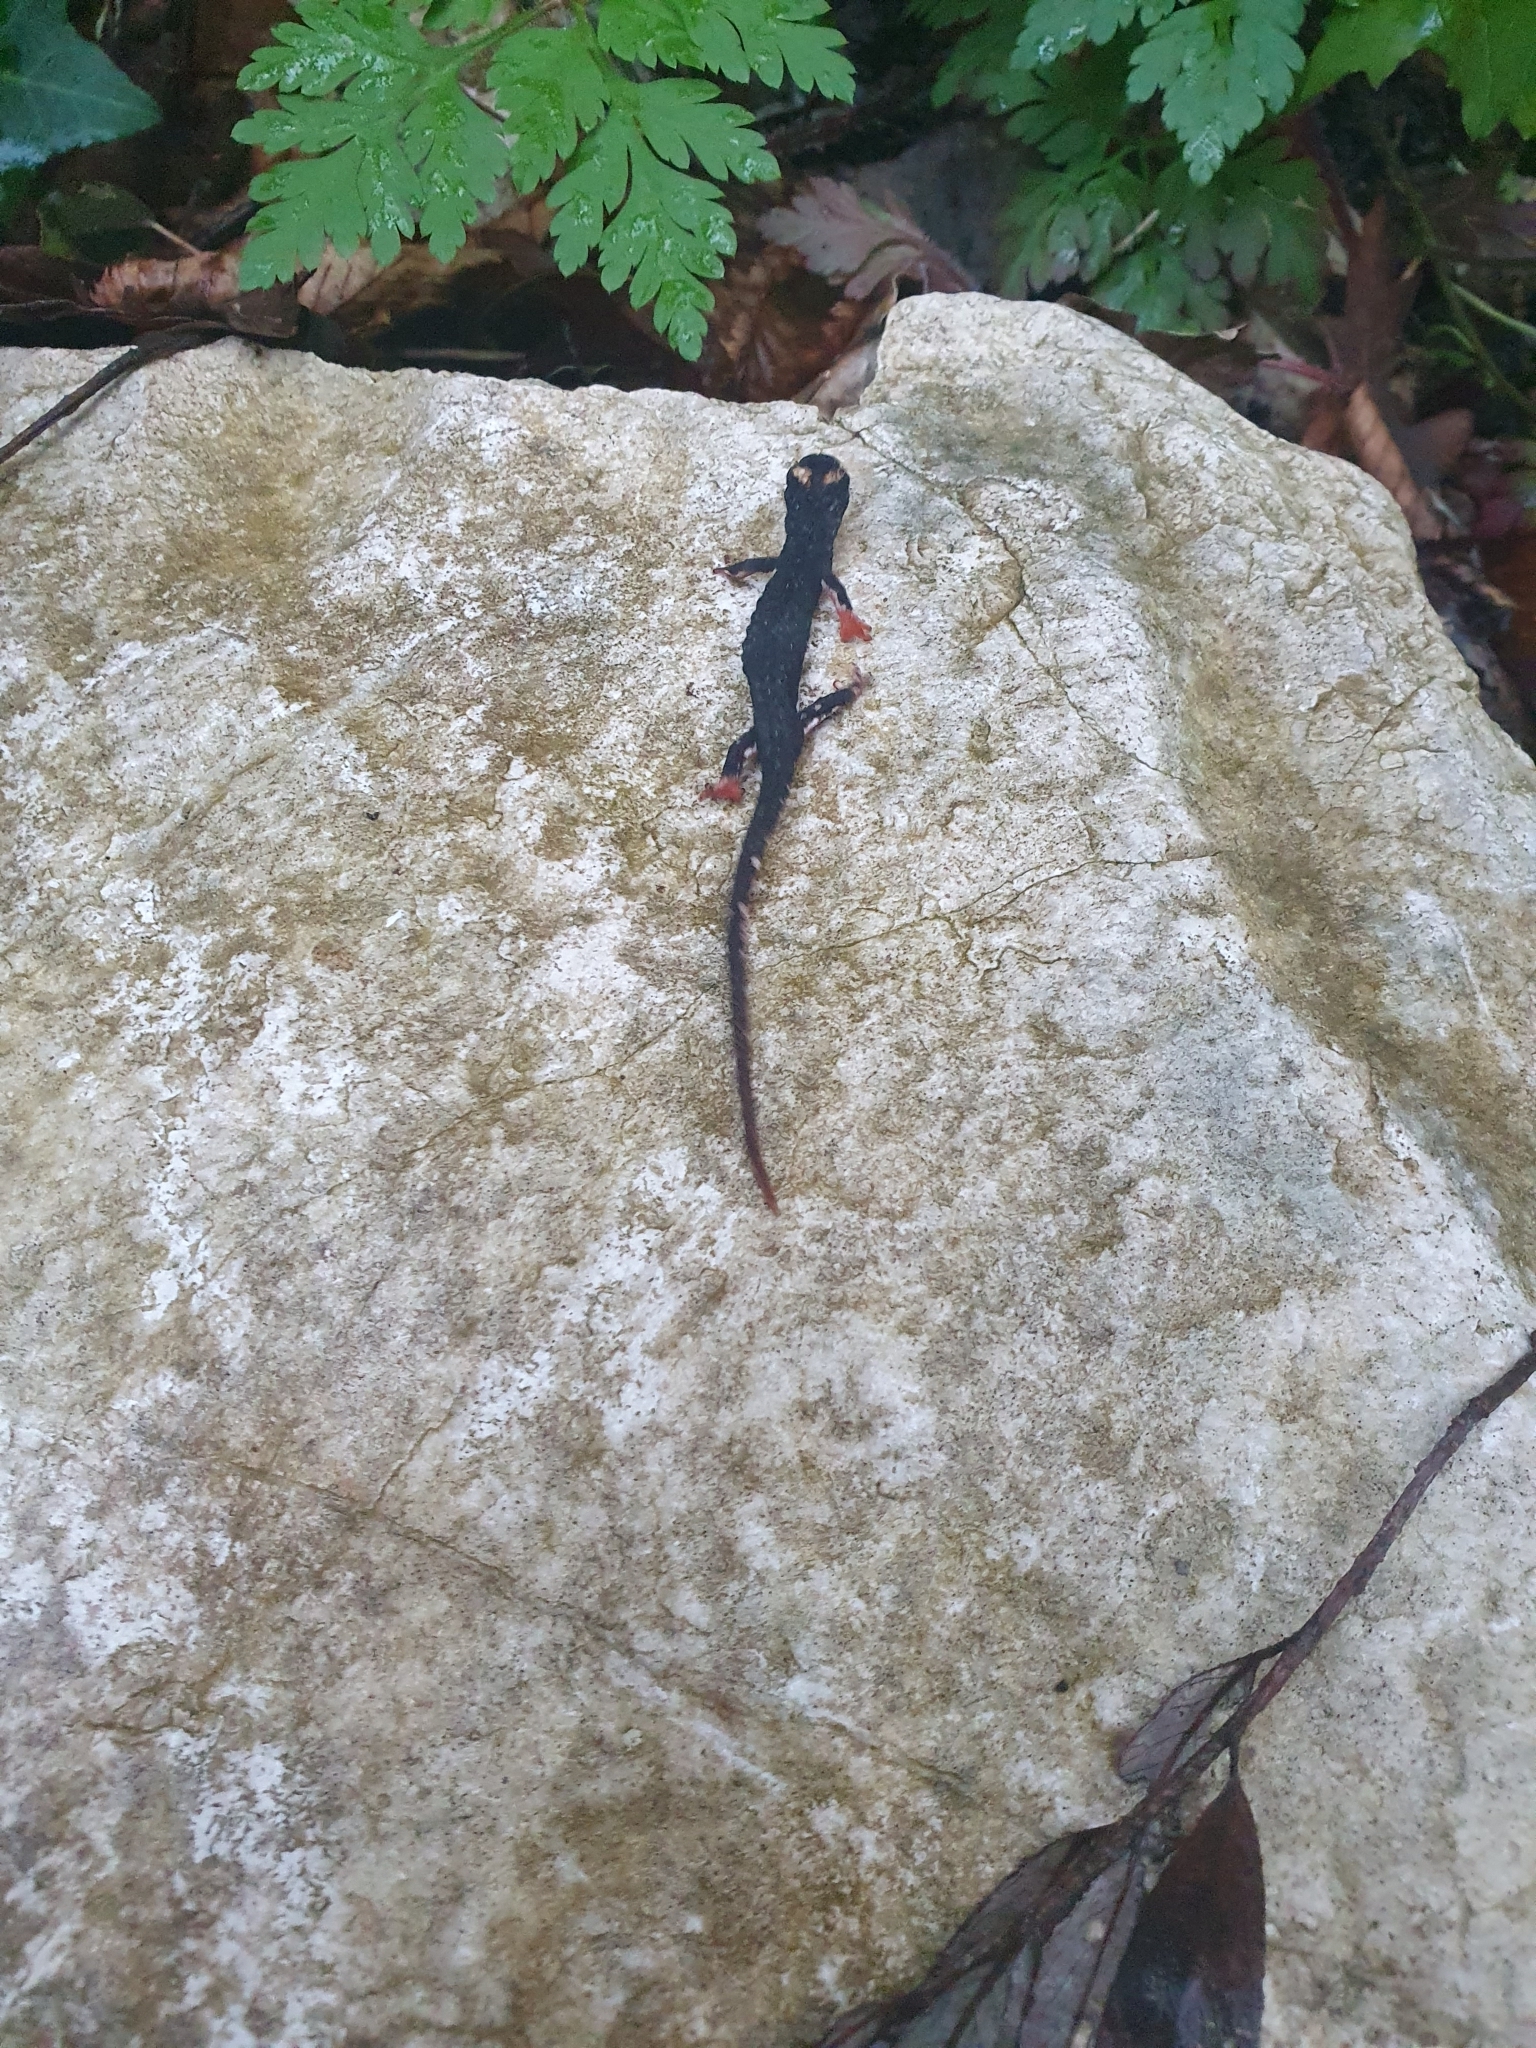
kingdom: Animalia
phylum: Chordata
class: Amphibia
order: Caudata
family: Salamandridae
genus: Salamandrina
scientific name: Salamandrina terdigitata
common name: Southern spectacled salamander
